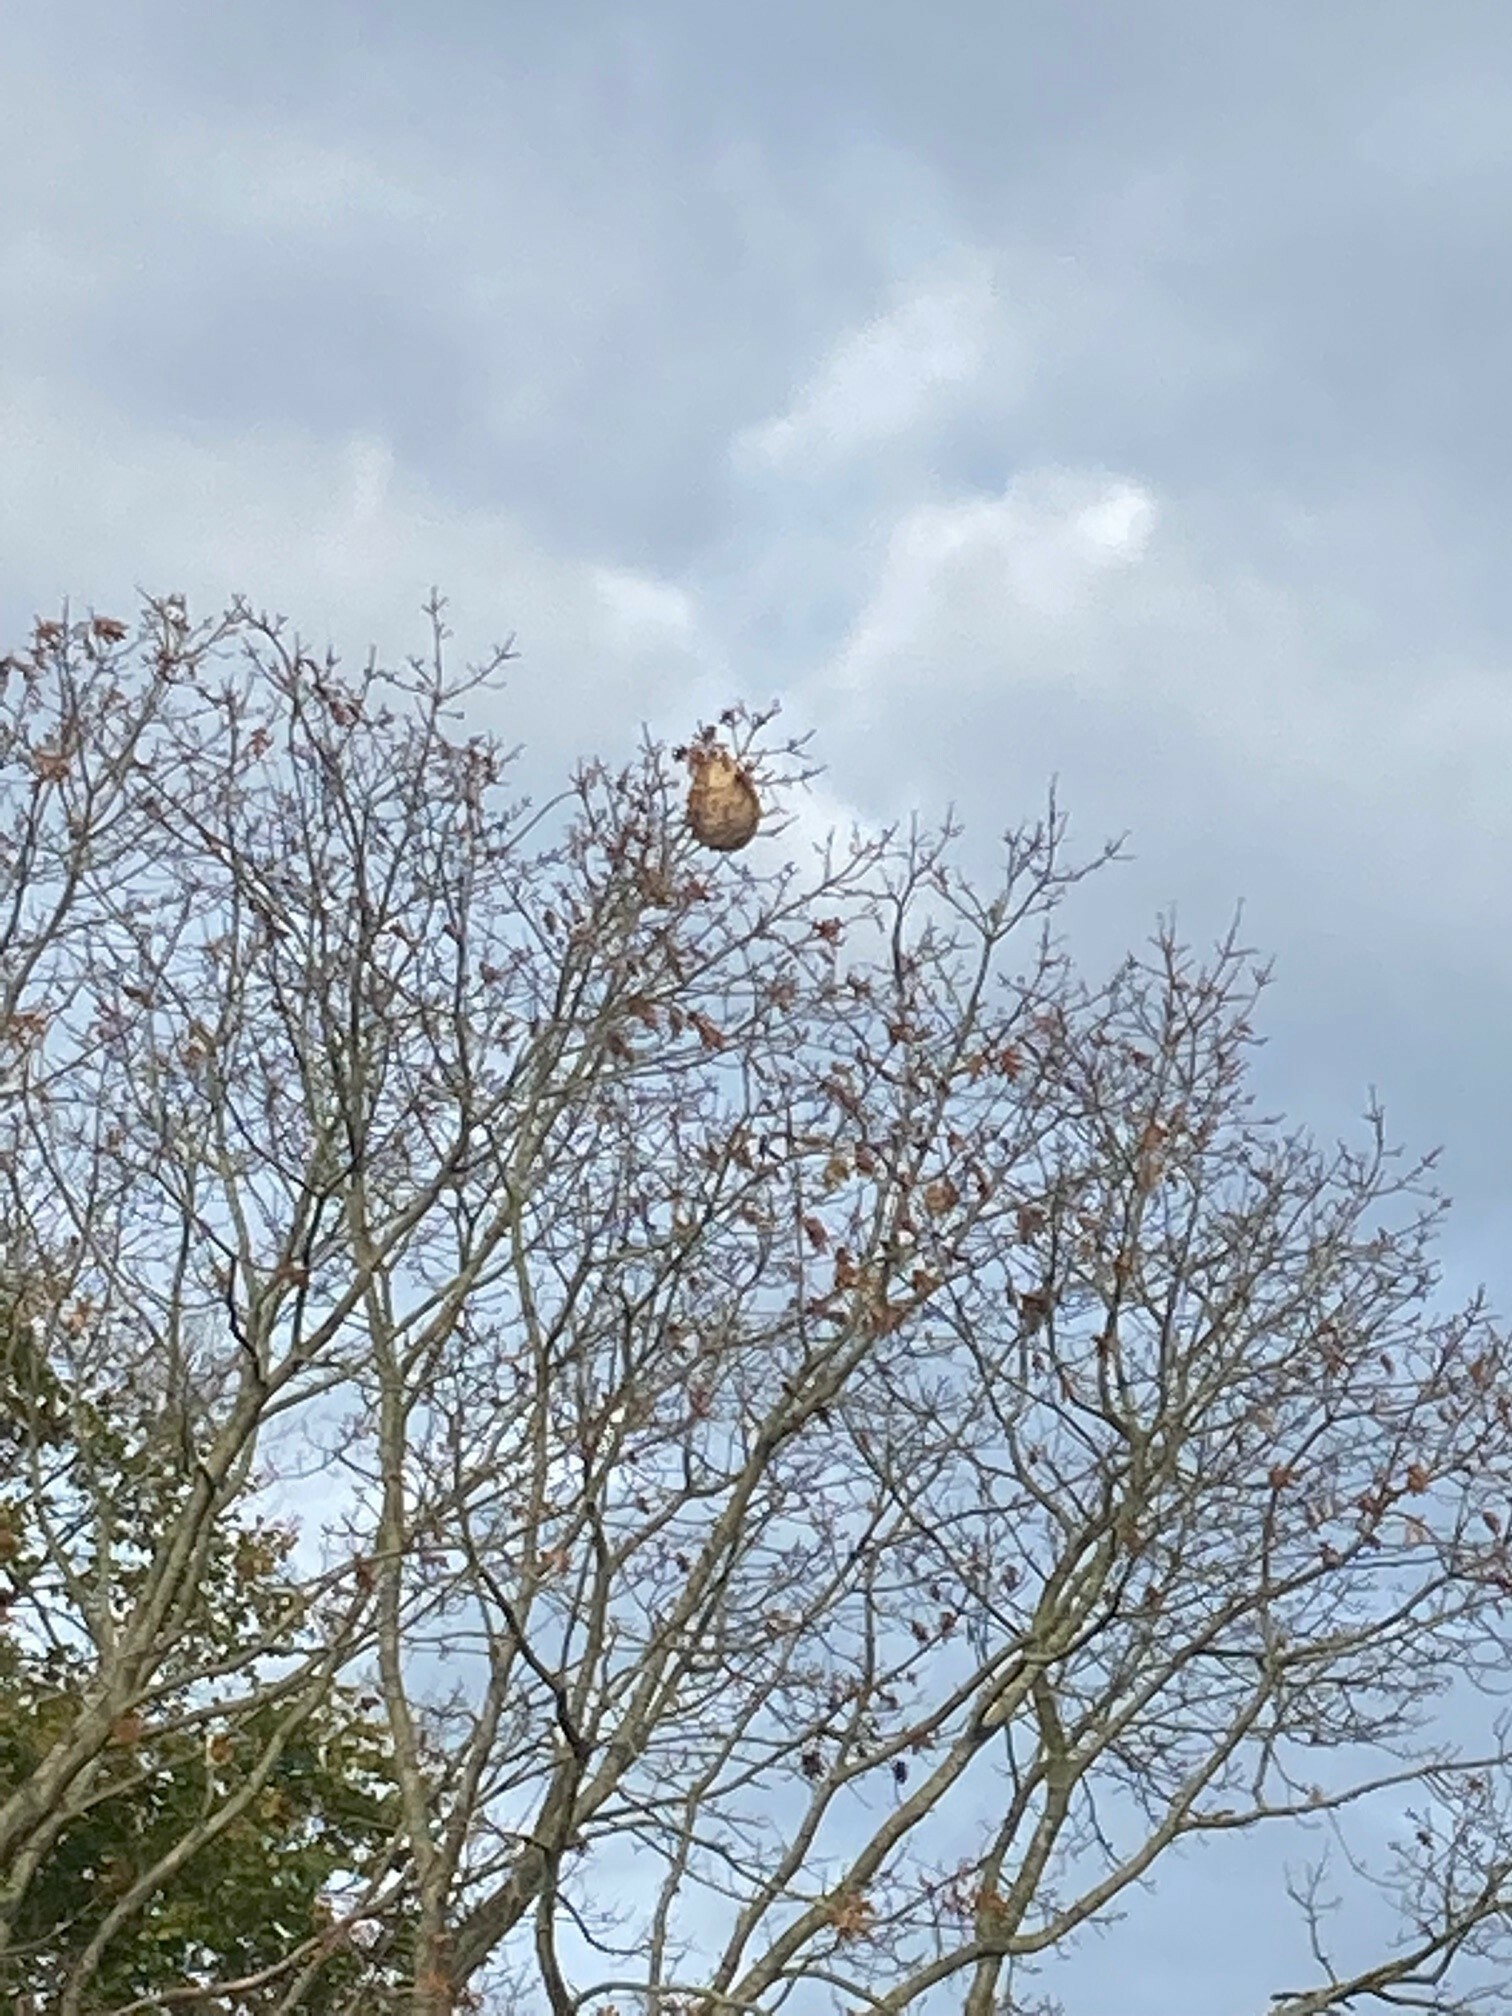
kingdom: Animalia
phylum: Arthropoda
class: Insecta
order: Hymenoptera
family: Vespidae
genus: Vespa
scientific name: Vespa velutina
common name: Asian hornet
